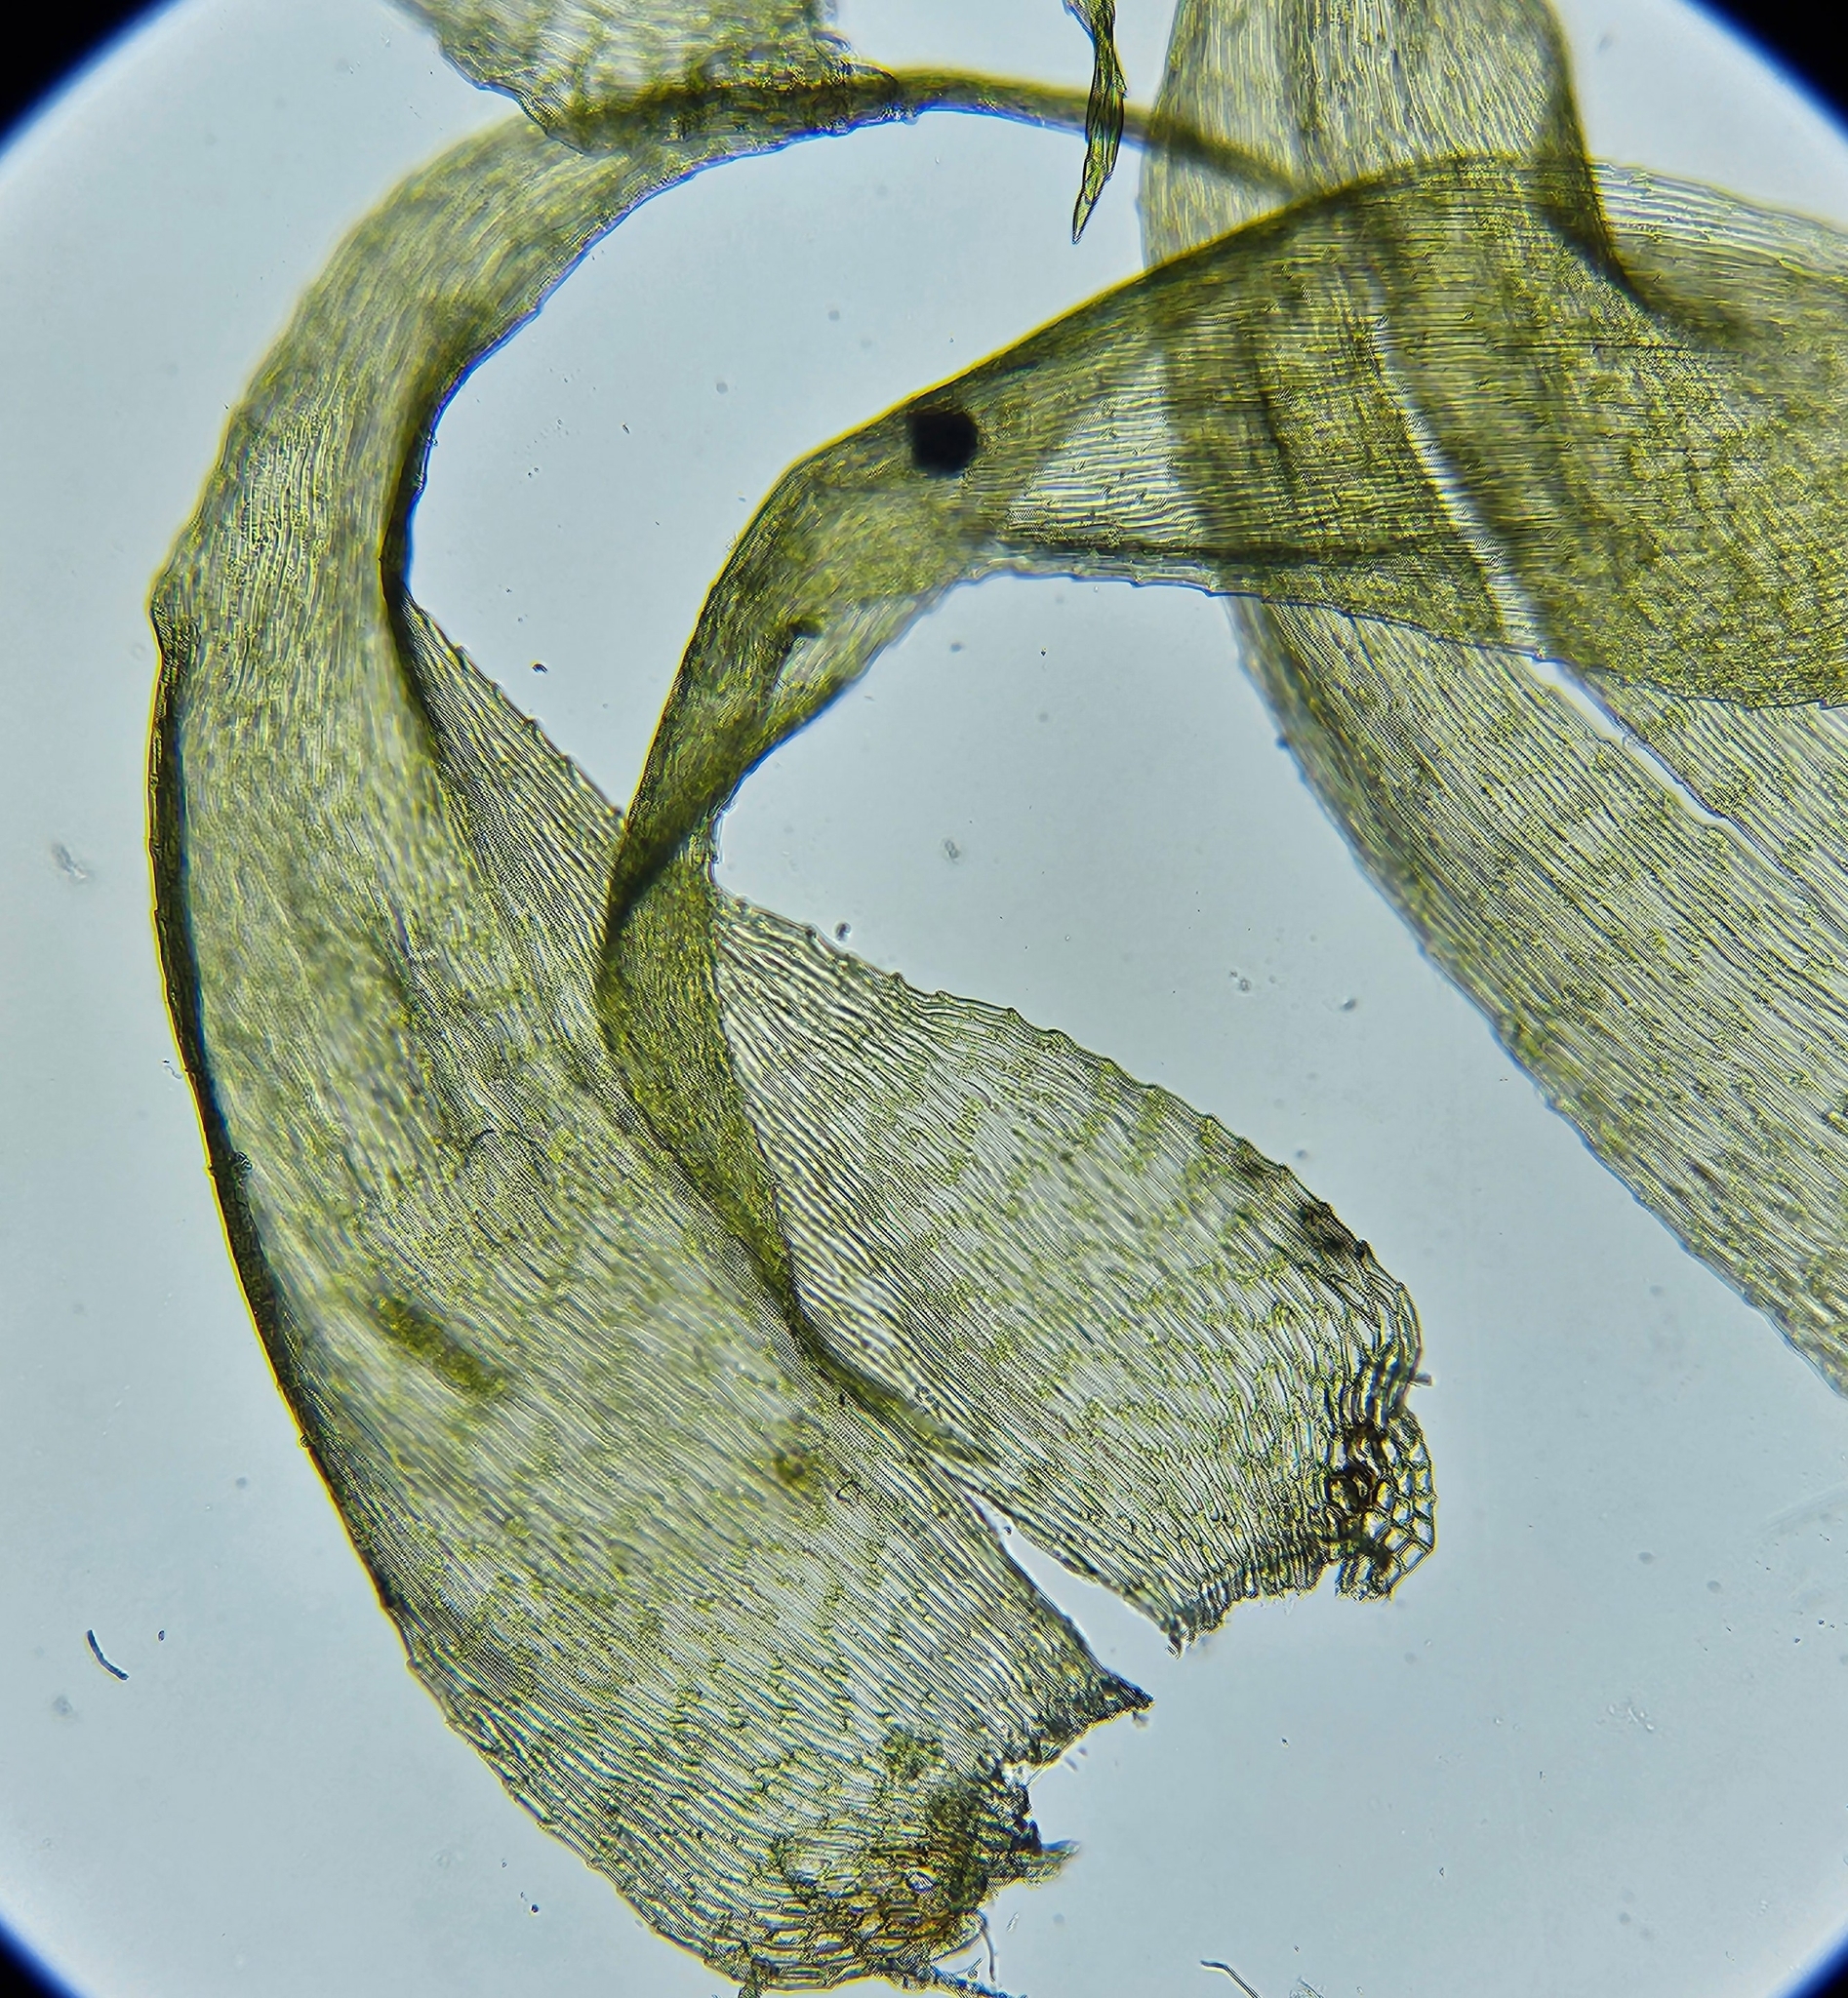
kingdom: Plantae
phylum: Bryophyta
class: Bryopsida
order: Hypnales
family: Myuriaceae
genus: Ctenidium
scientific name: Ctenidium molluscum
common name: Chalk comb-moss
